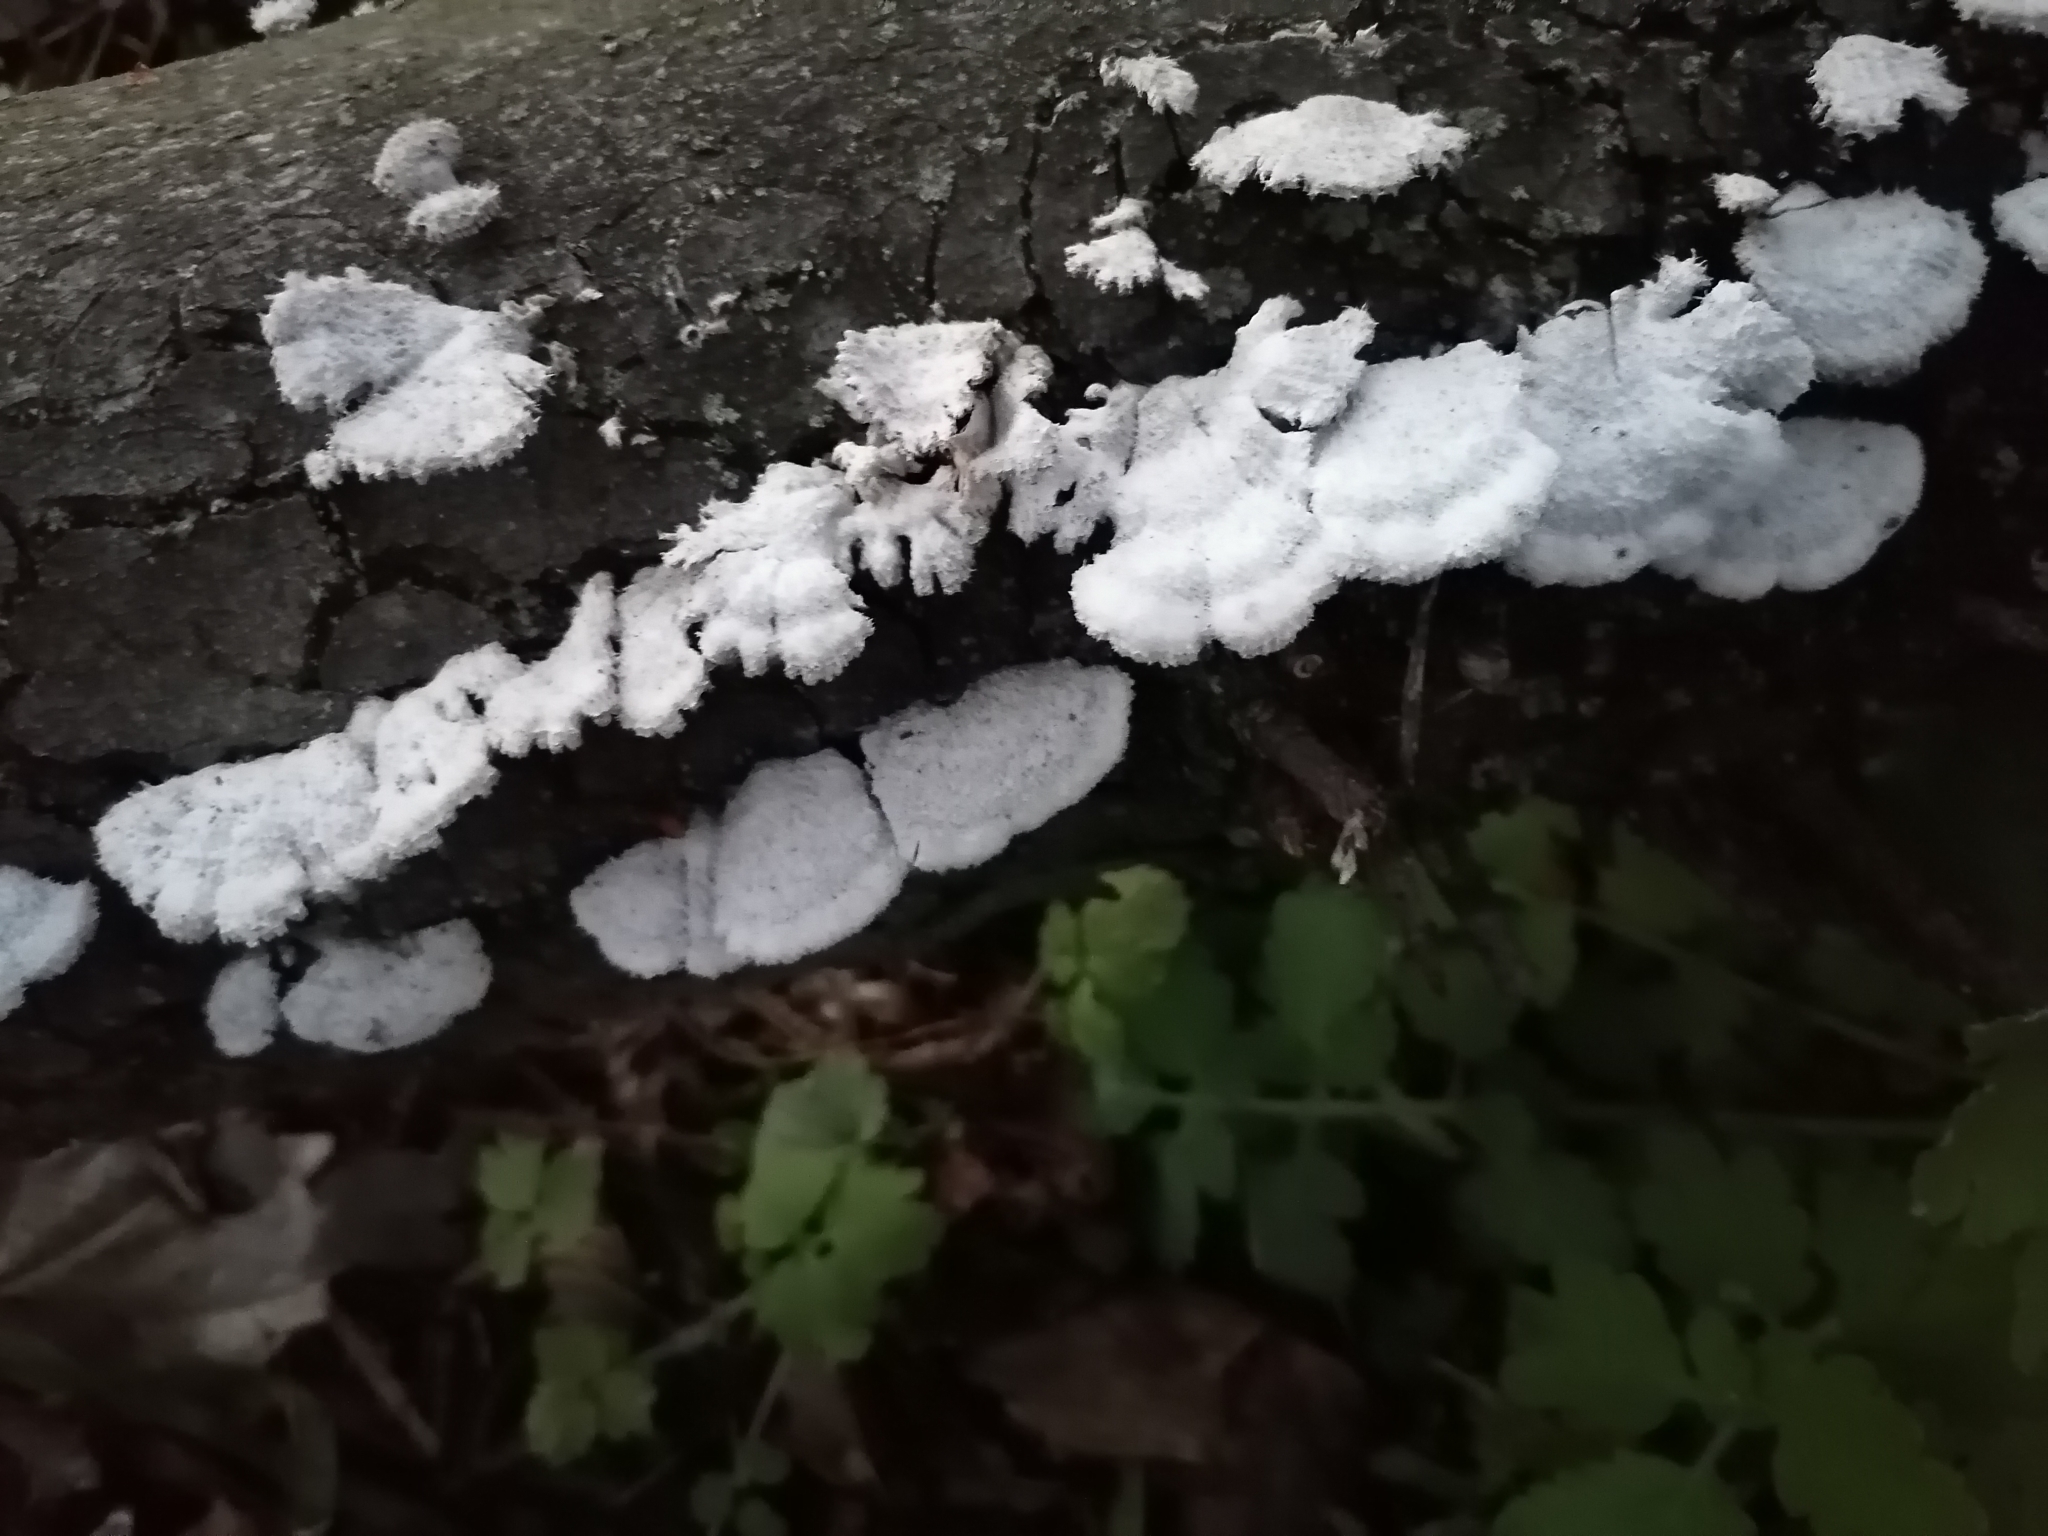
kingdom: Fungi
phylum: Basidiomycota
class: Agaricomycetes
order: Agaricales
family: Schizophyllaceae
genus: Schizophyllum
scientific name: Schizophyllum commune
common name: Common porecrust
